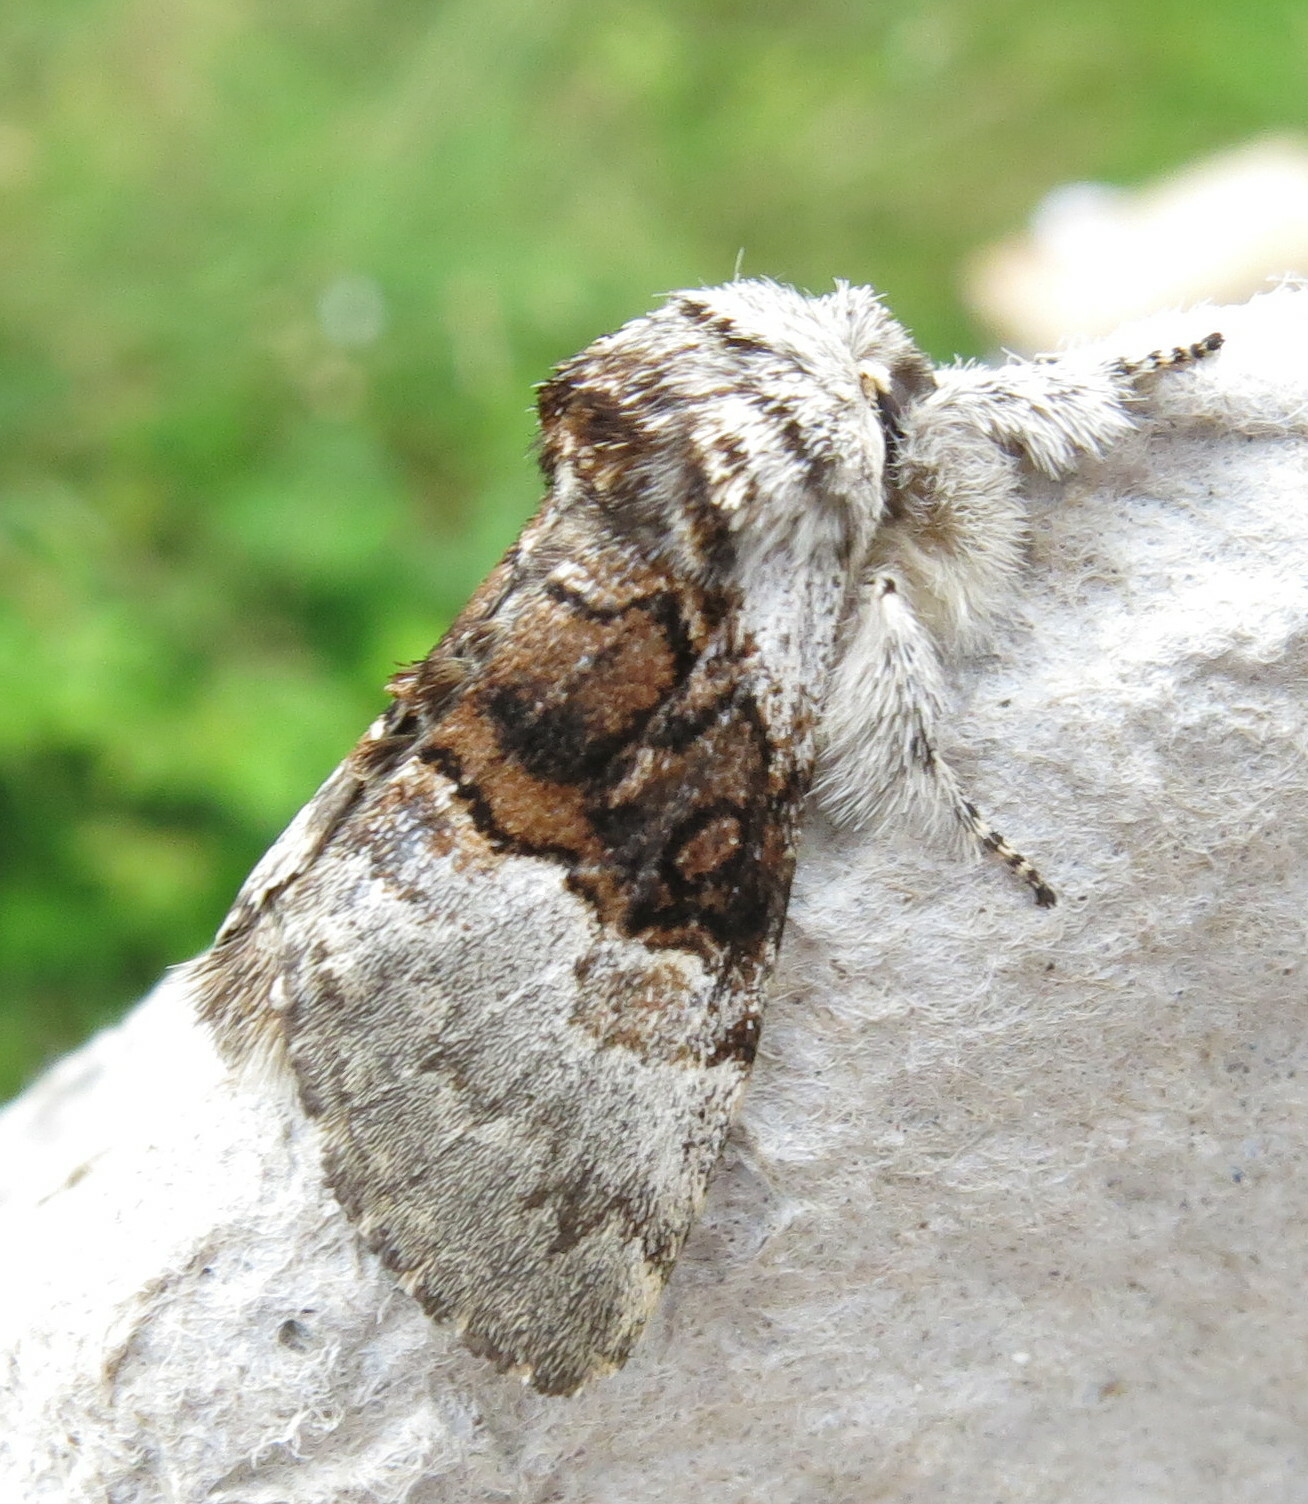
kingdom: Animalia
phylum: Arthropoda
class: Insecta
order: Lepidoptera
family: Noctuidae
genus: Colocasia
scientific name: Colocasia coryli
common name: Nut-tree tussock
